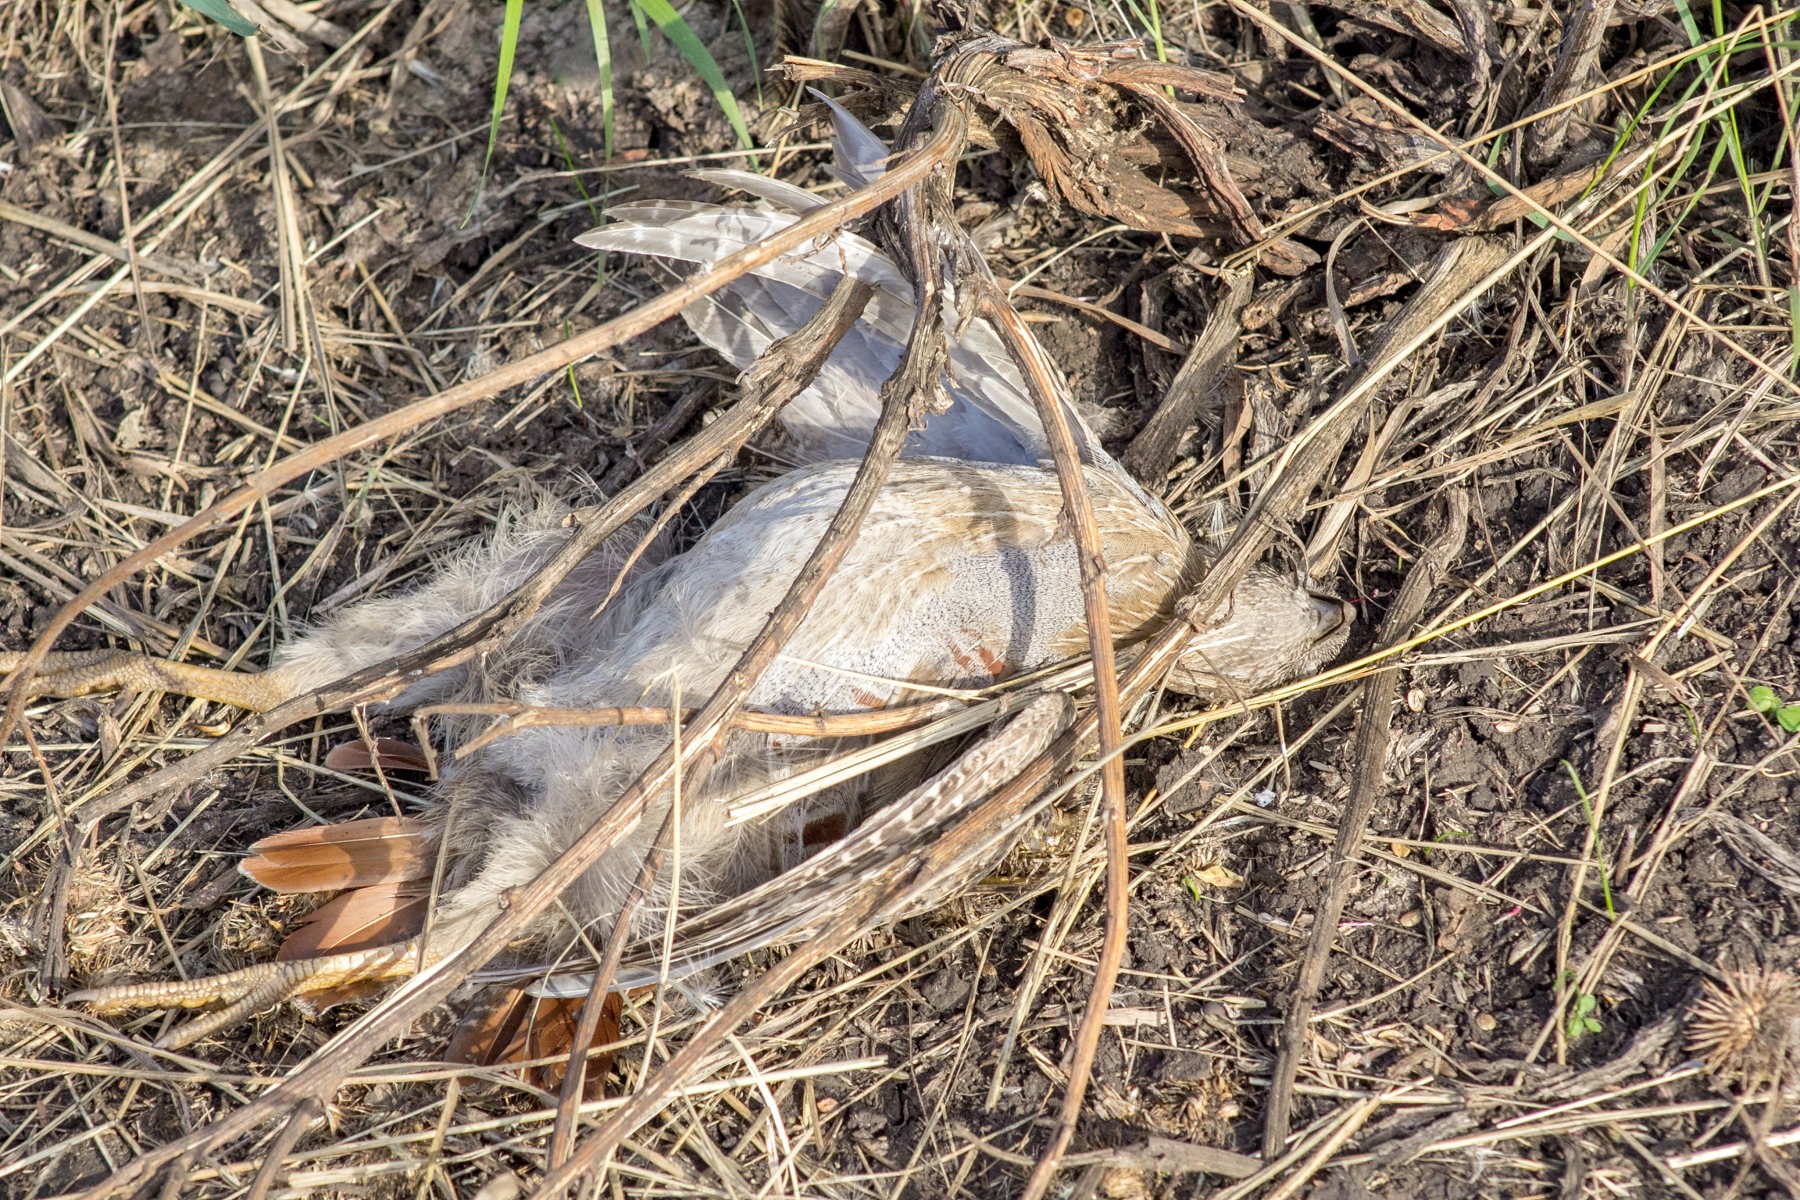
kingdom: Animalia
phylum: Chordata
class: Aves
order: Galliformes
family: Phasianidae
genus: Perdix
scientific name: Perdix perdix
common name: Grey partridge
